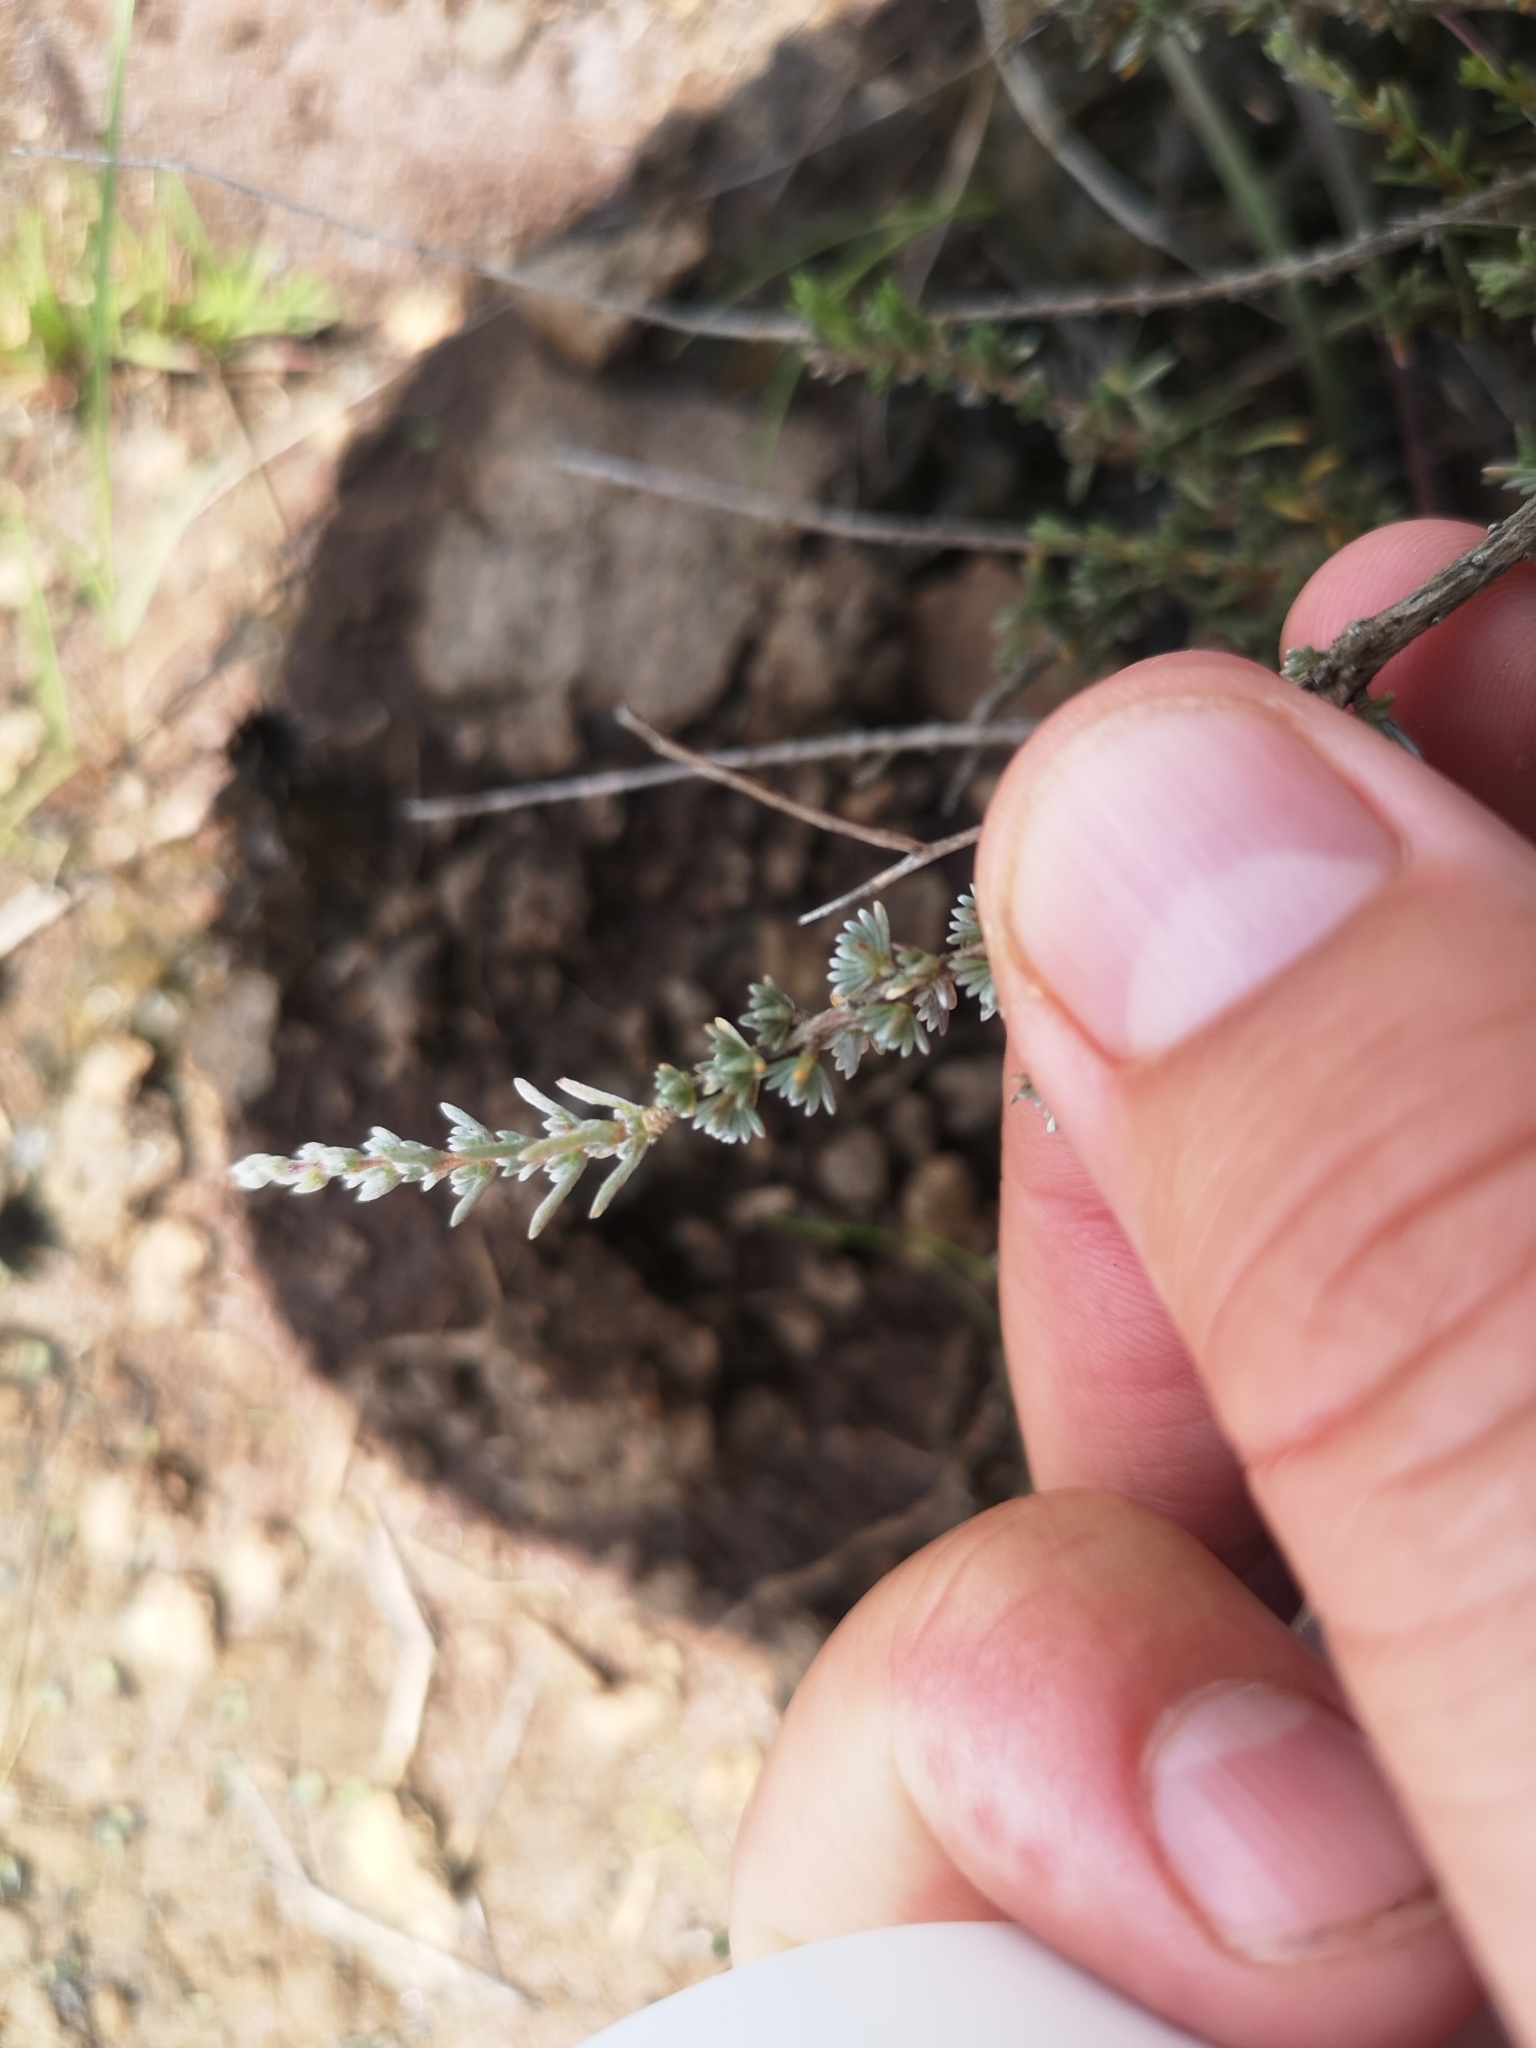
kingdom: Plantae
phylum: Tracheophyta
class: Magnoliopsida
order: Asterales
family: Asteraceae
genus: Eriocephalus
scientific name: Eriocephalus spinescens
